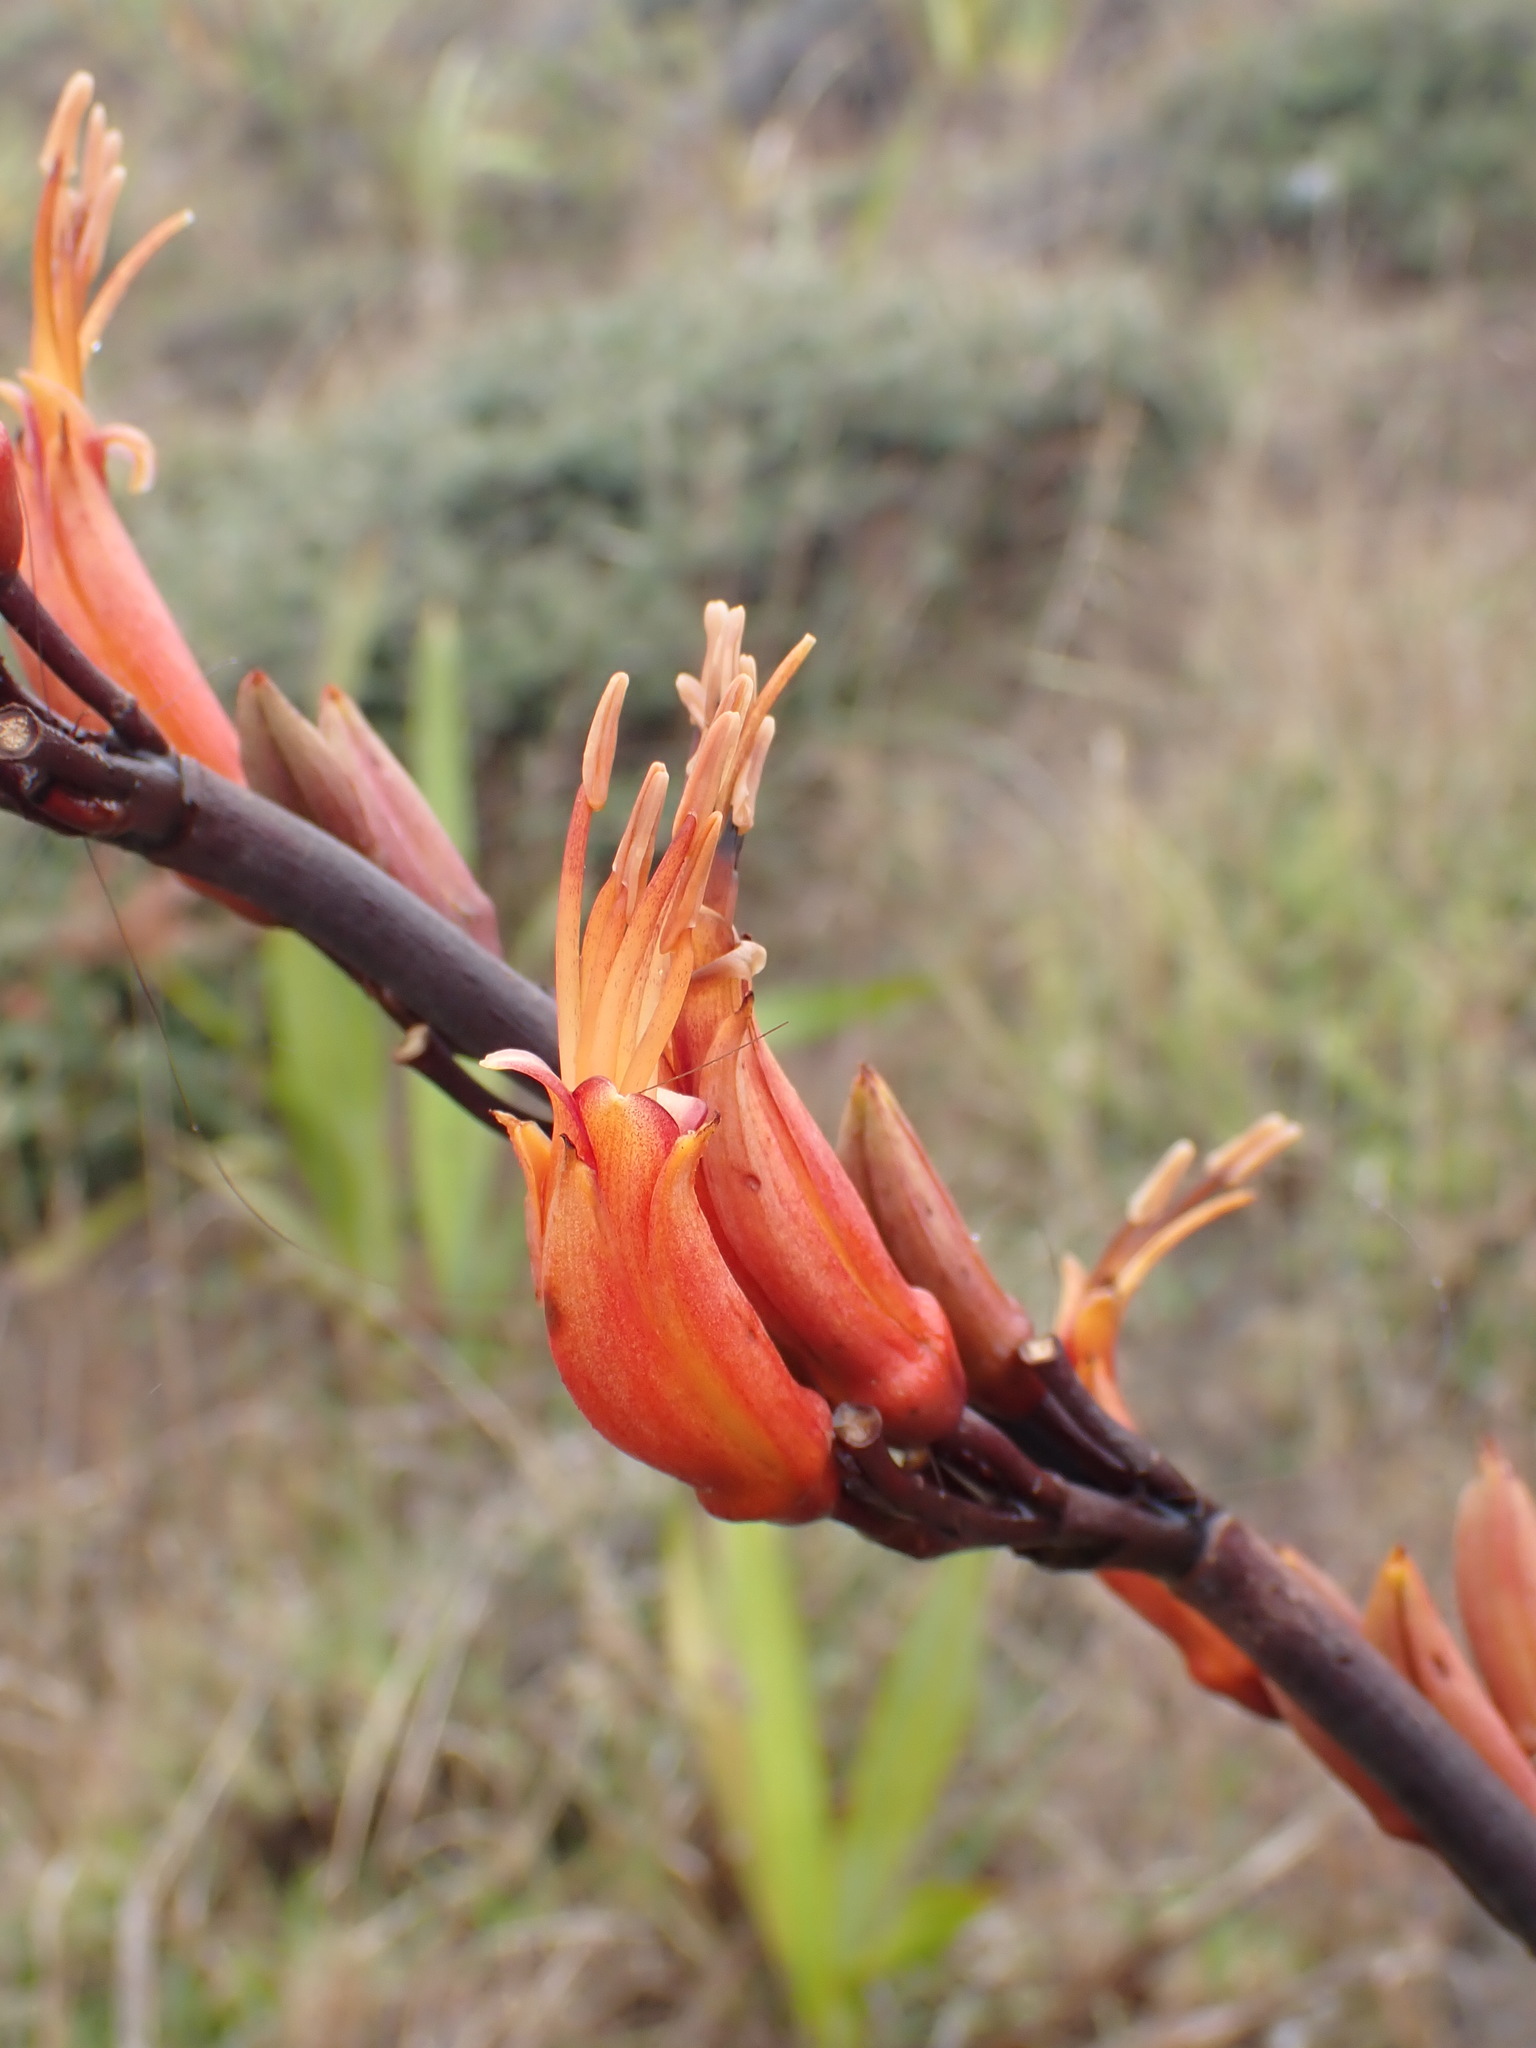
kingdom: Plantae
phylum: Tracheophyta
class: Liliopsida
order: Asparagales
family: Asphodelaceae
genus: Phormium
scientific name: Phormium tenax
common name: New zealand flax
